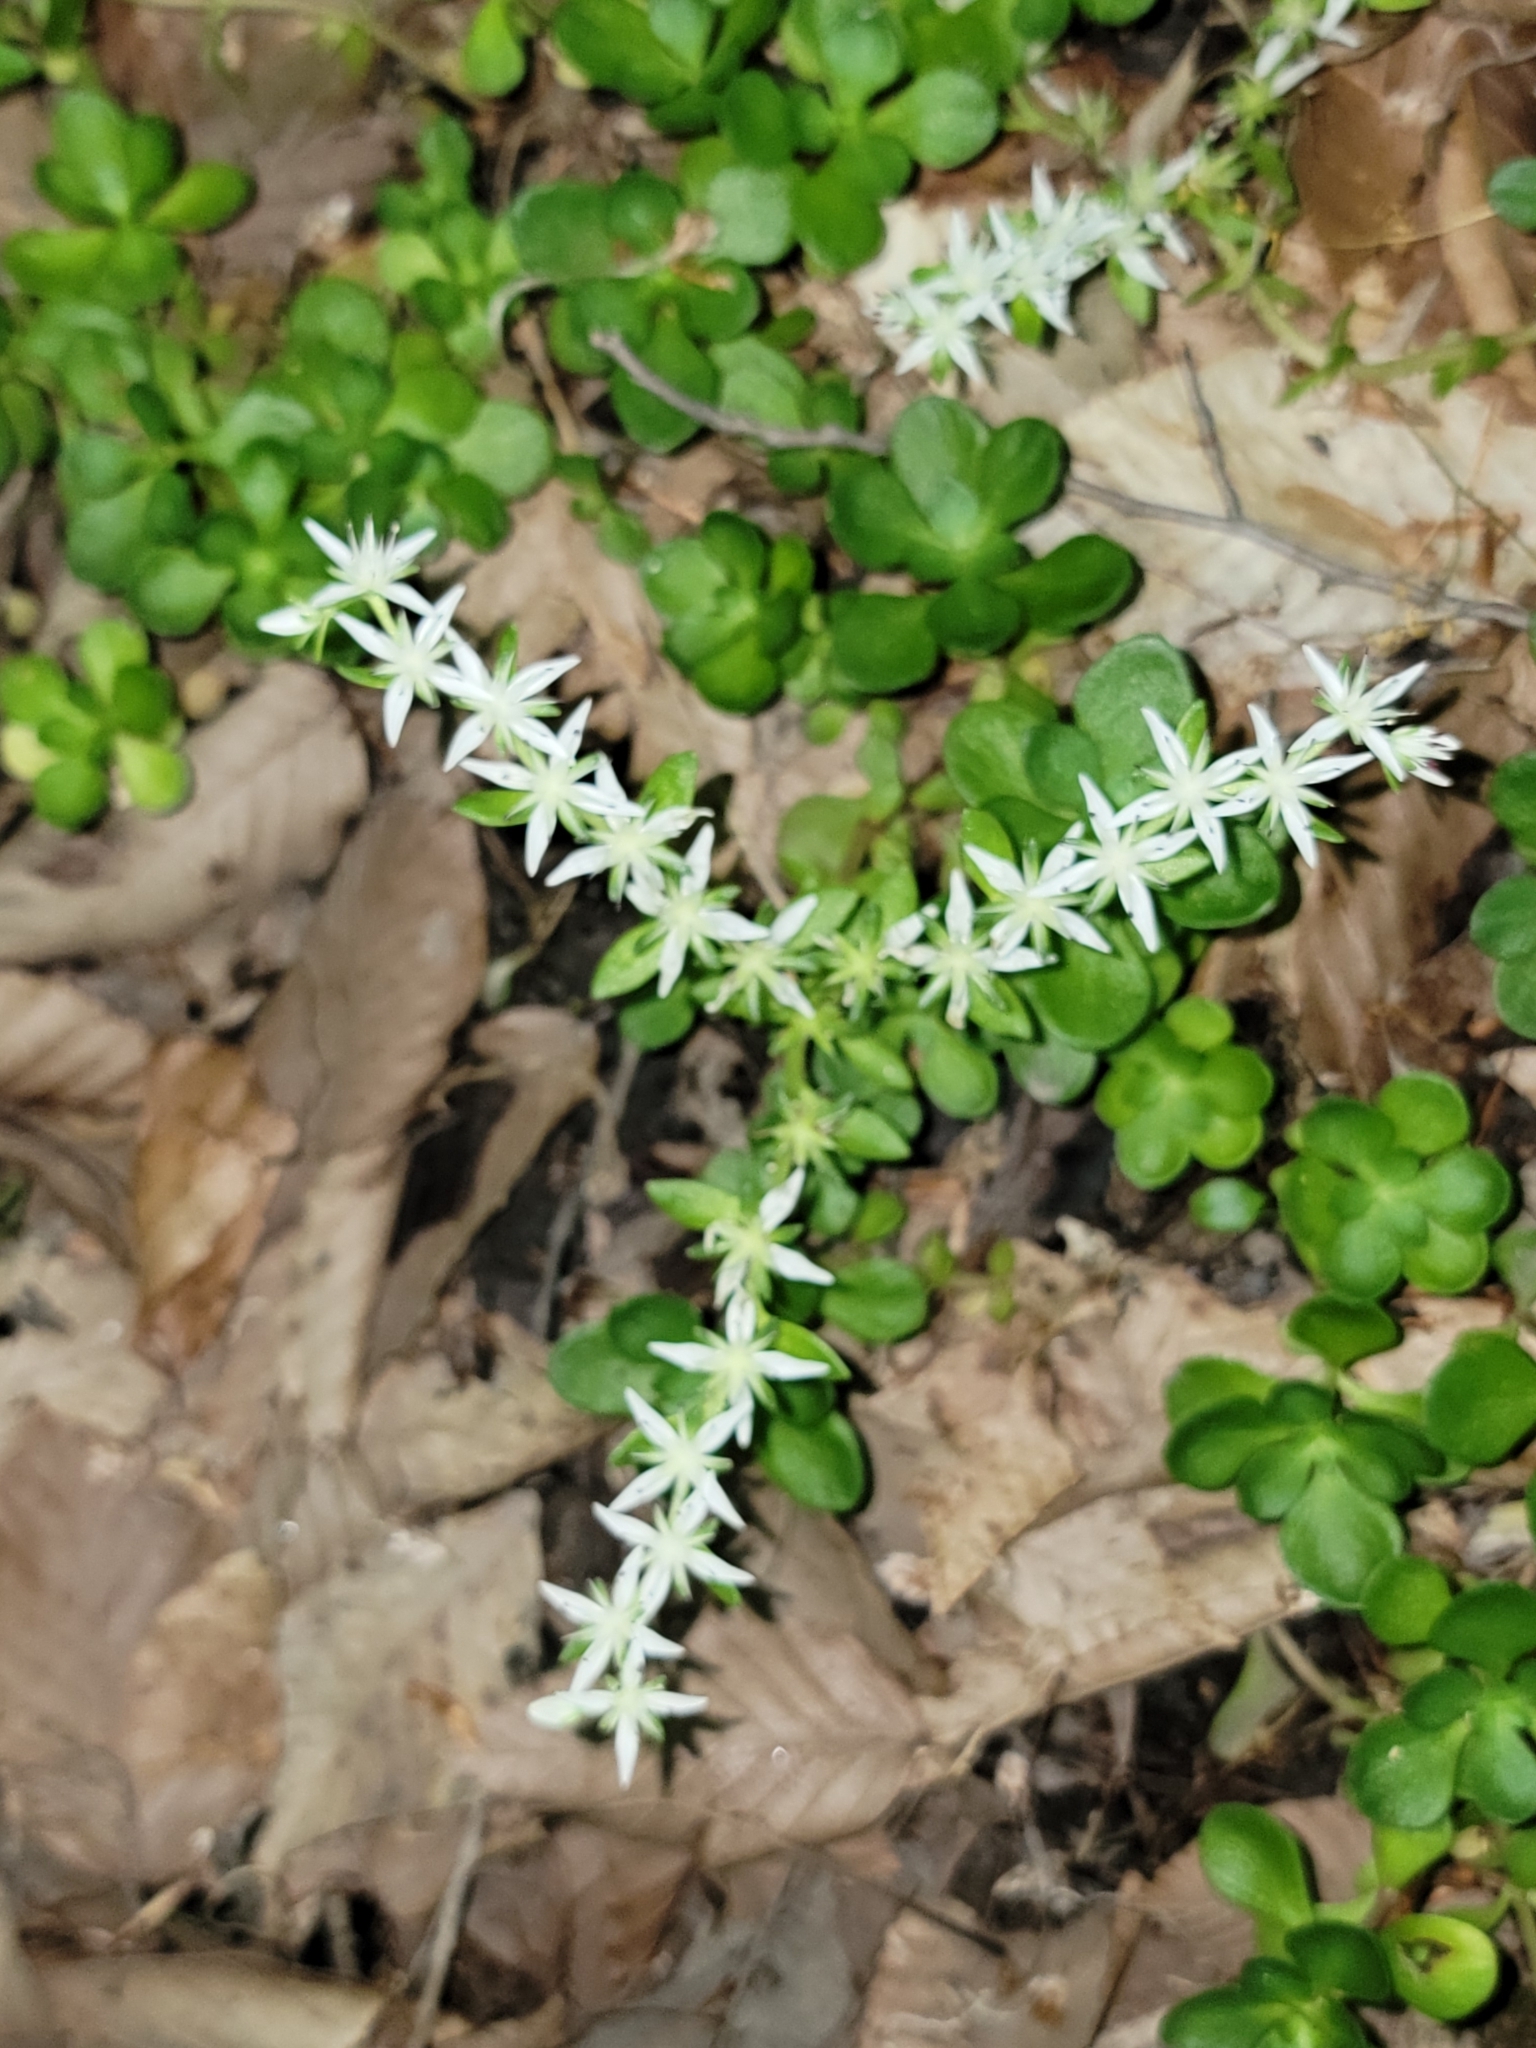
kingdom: Plantae
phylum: Tracheophyta
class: Magnoliopsida
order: Saxifragales
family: Crassulaceae
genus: Sedum
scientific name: Sedum ternatum
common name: Wild stonecrop
